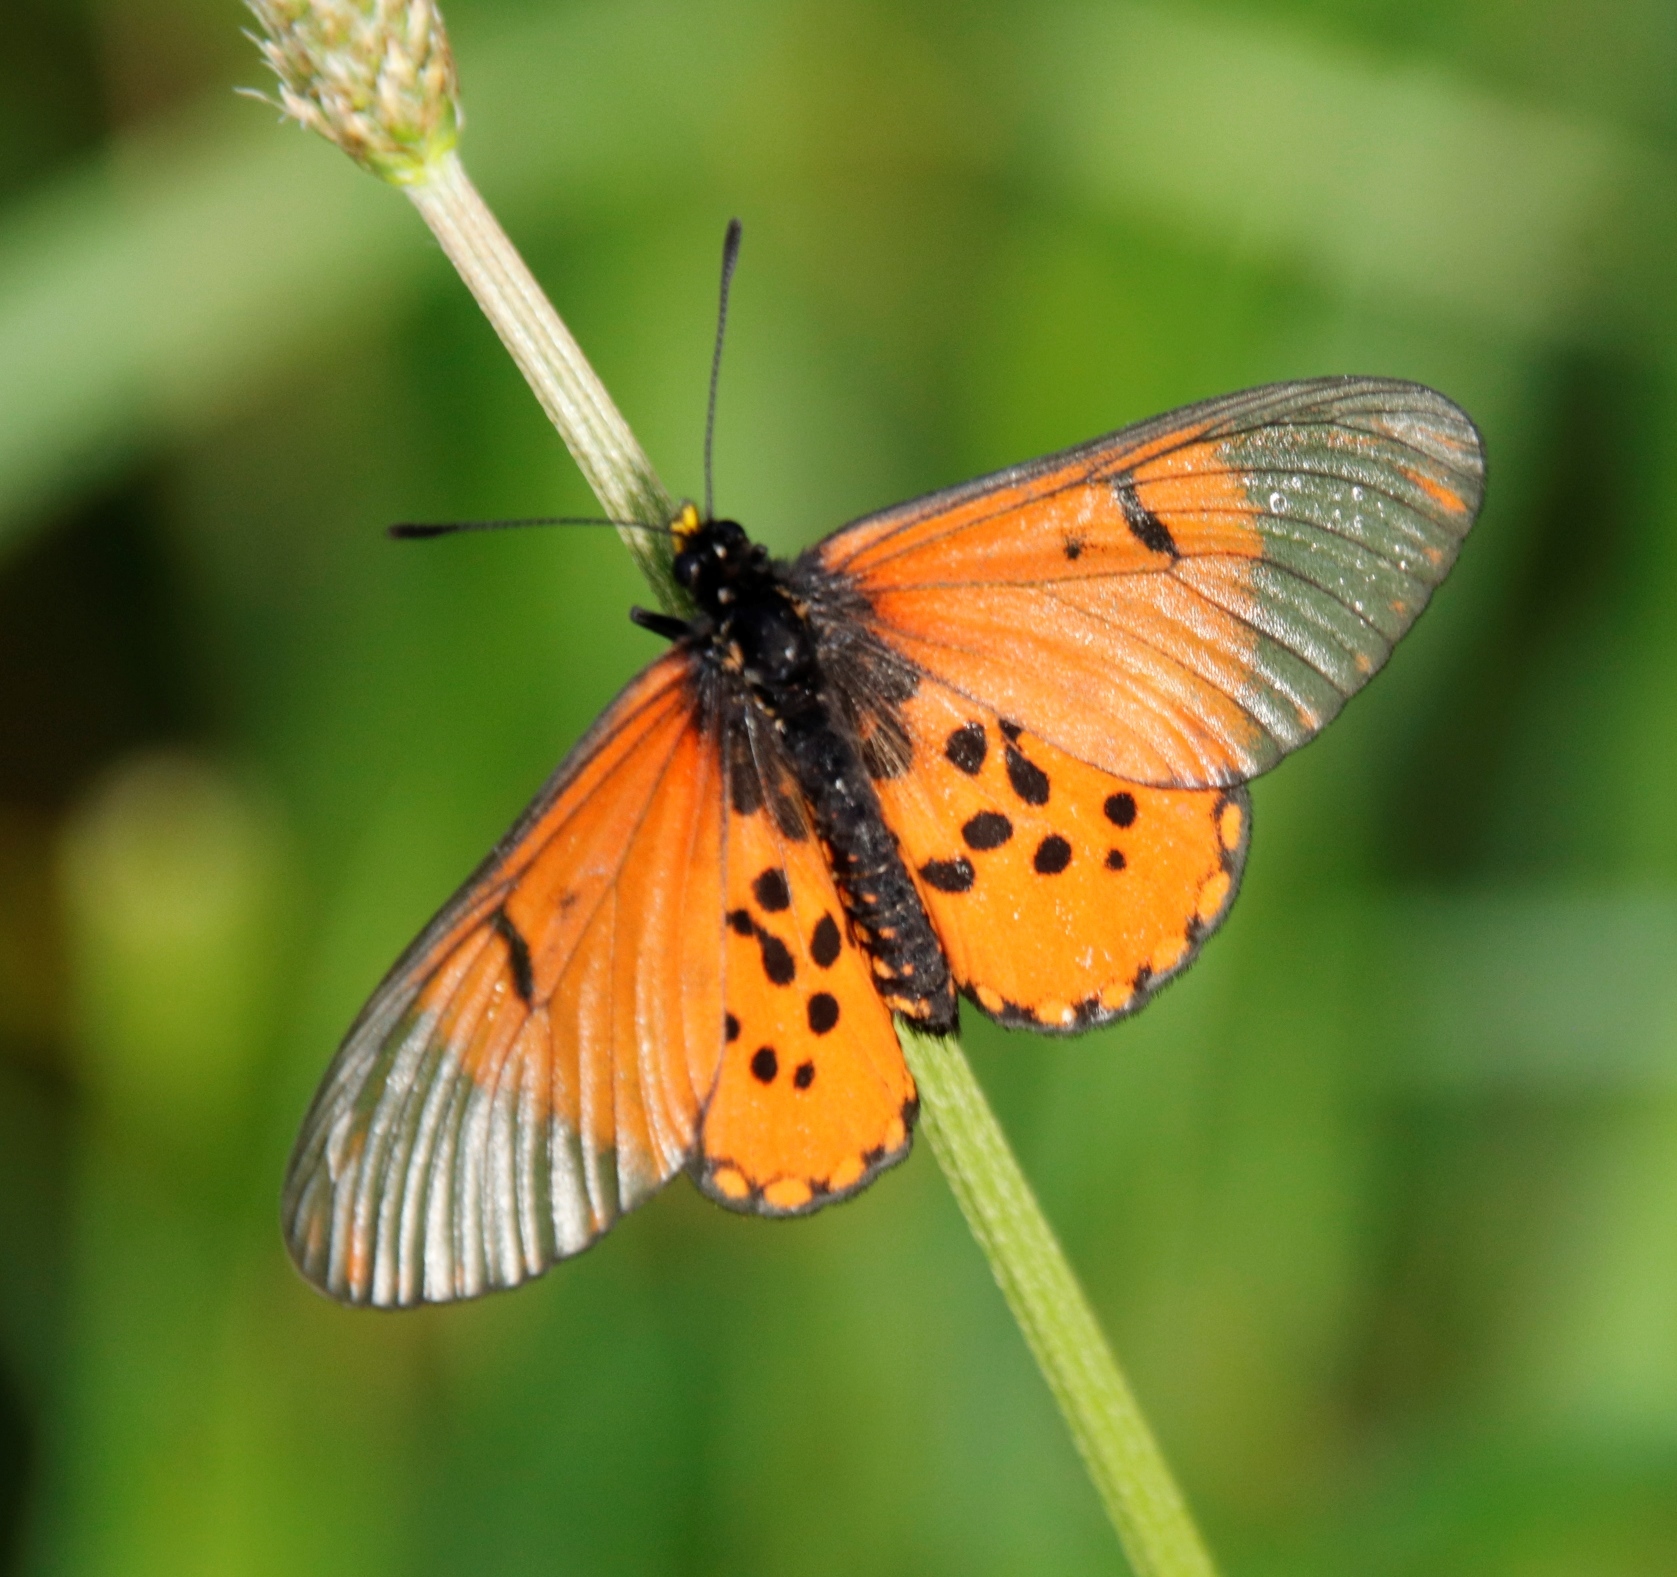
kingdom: Animalia
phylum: Arthropoda
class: Insecta
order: Lepidoptera
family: Nymphalidae
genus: Acraea
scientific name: Acraea horta
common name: Garden acraea
